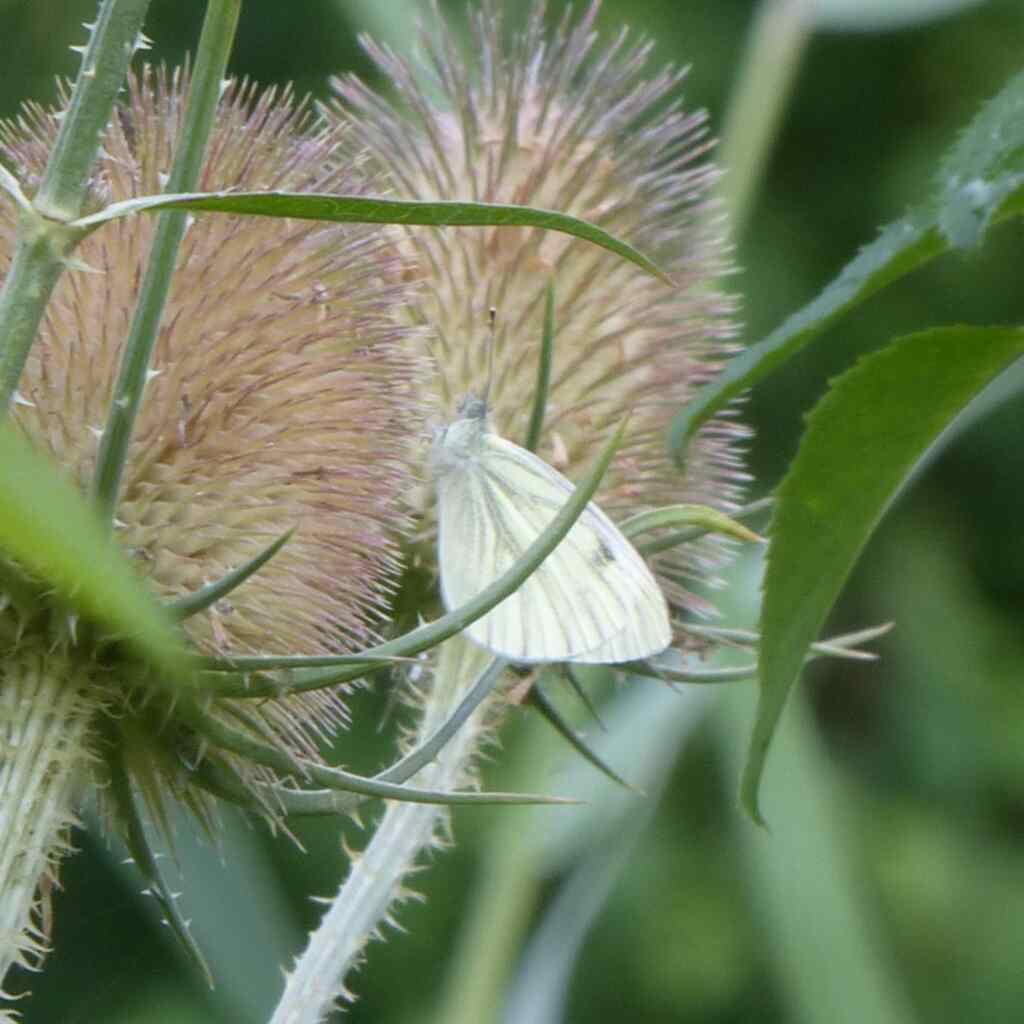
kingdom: Animalia
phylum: Arthropoda
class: Insecta
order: Lepidoptera
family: Pieridae
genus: Pieris
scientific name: Pieris napi
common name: Green-veined white
